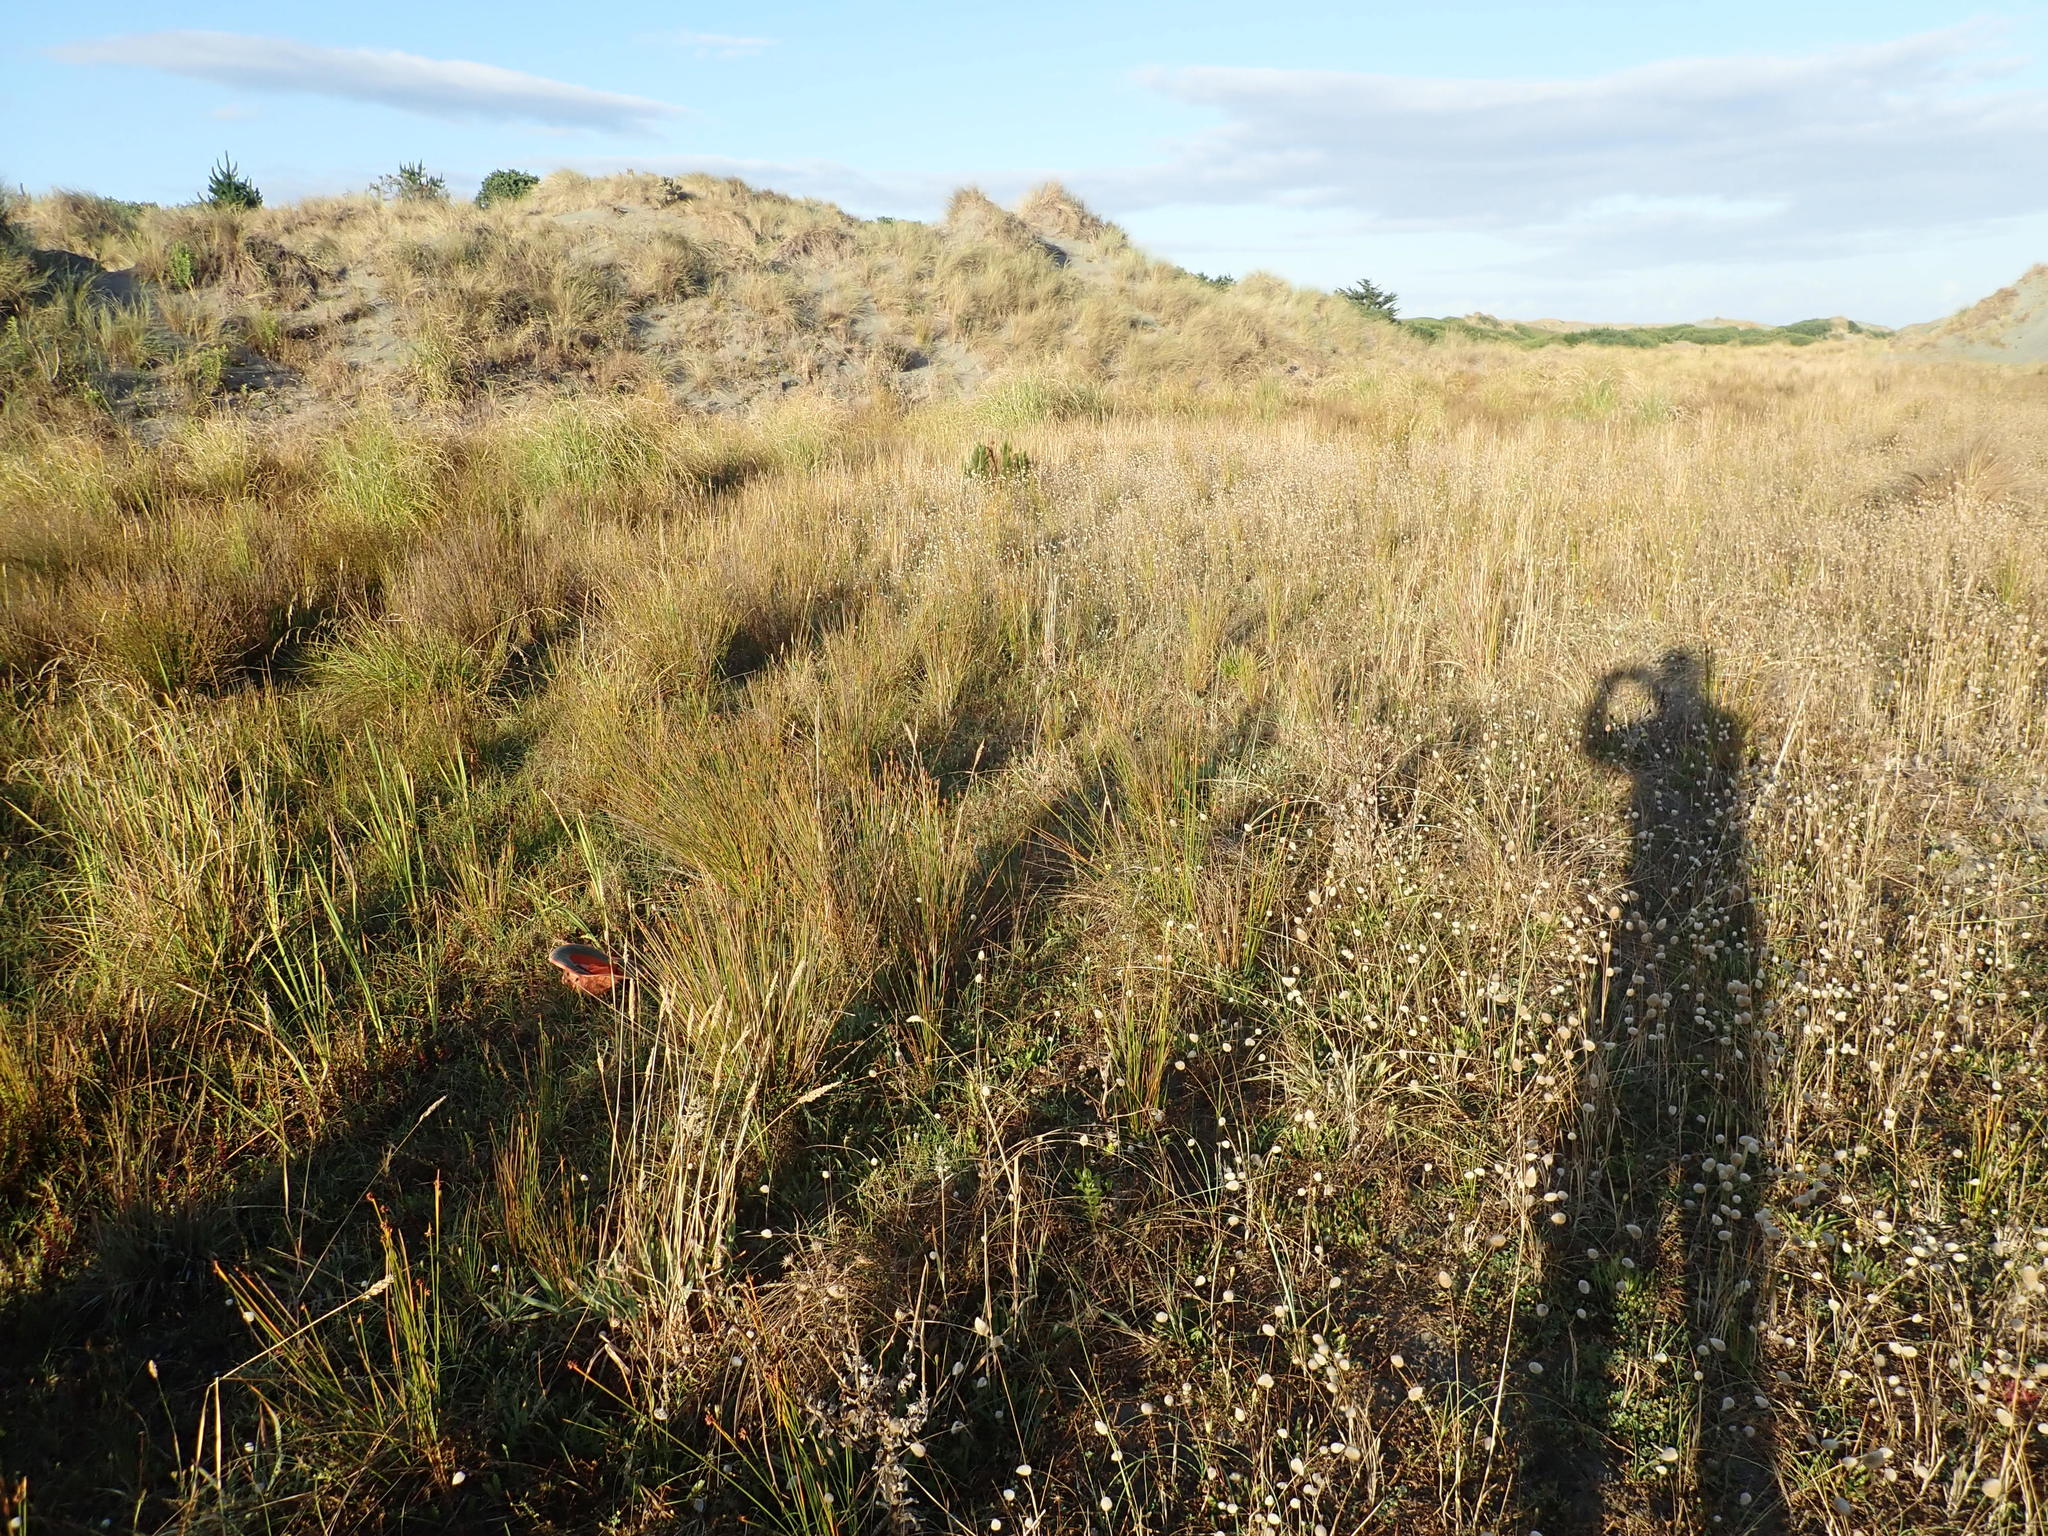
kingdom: Plantae
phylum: Tracheophyta
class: Magnoliopsida
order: Myrtales
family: Onagraceae
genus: Epilobium
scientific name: Epilobium billardiereanum
